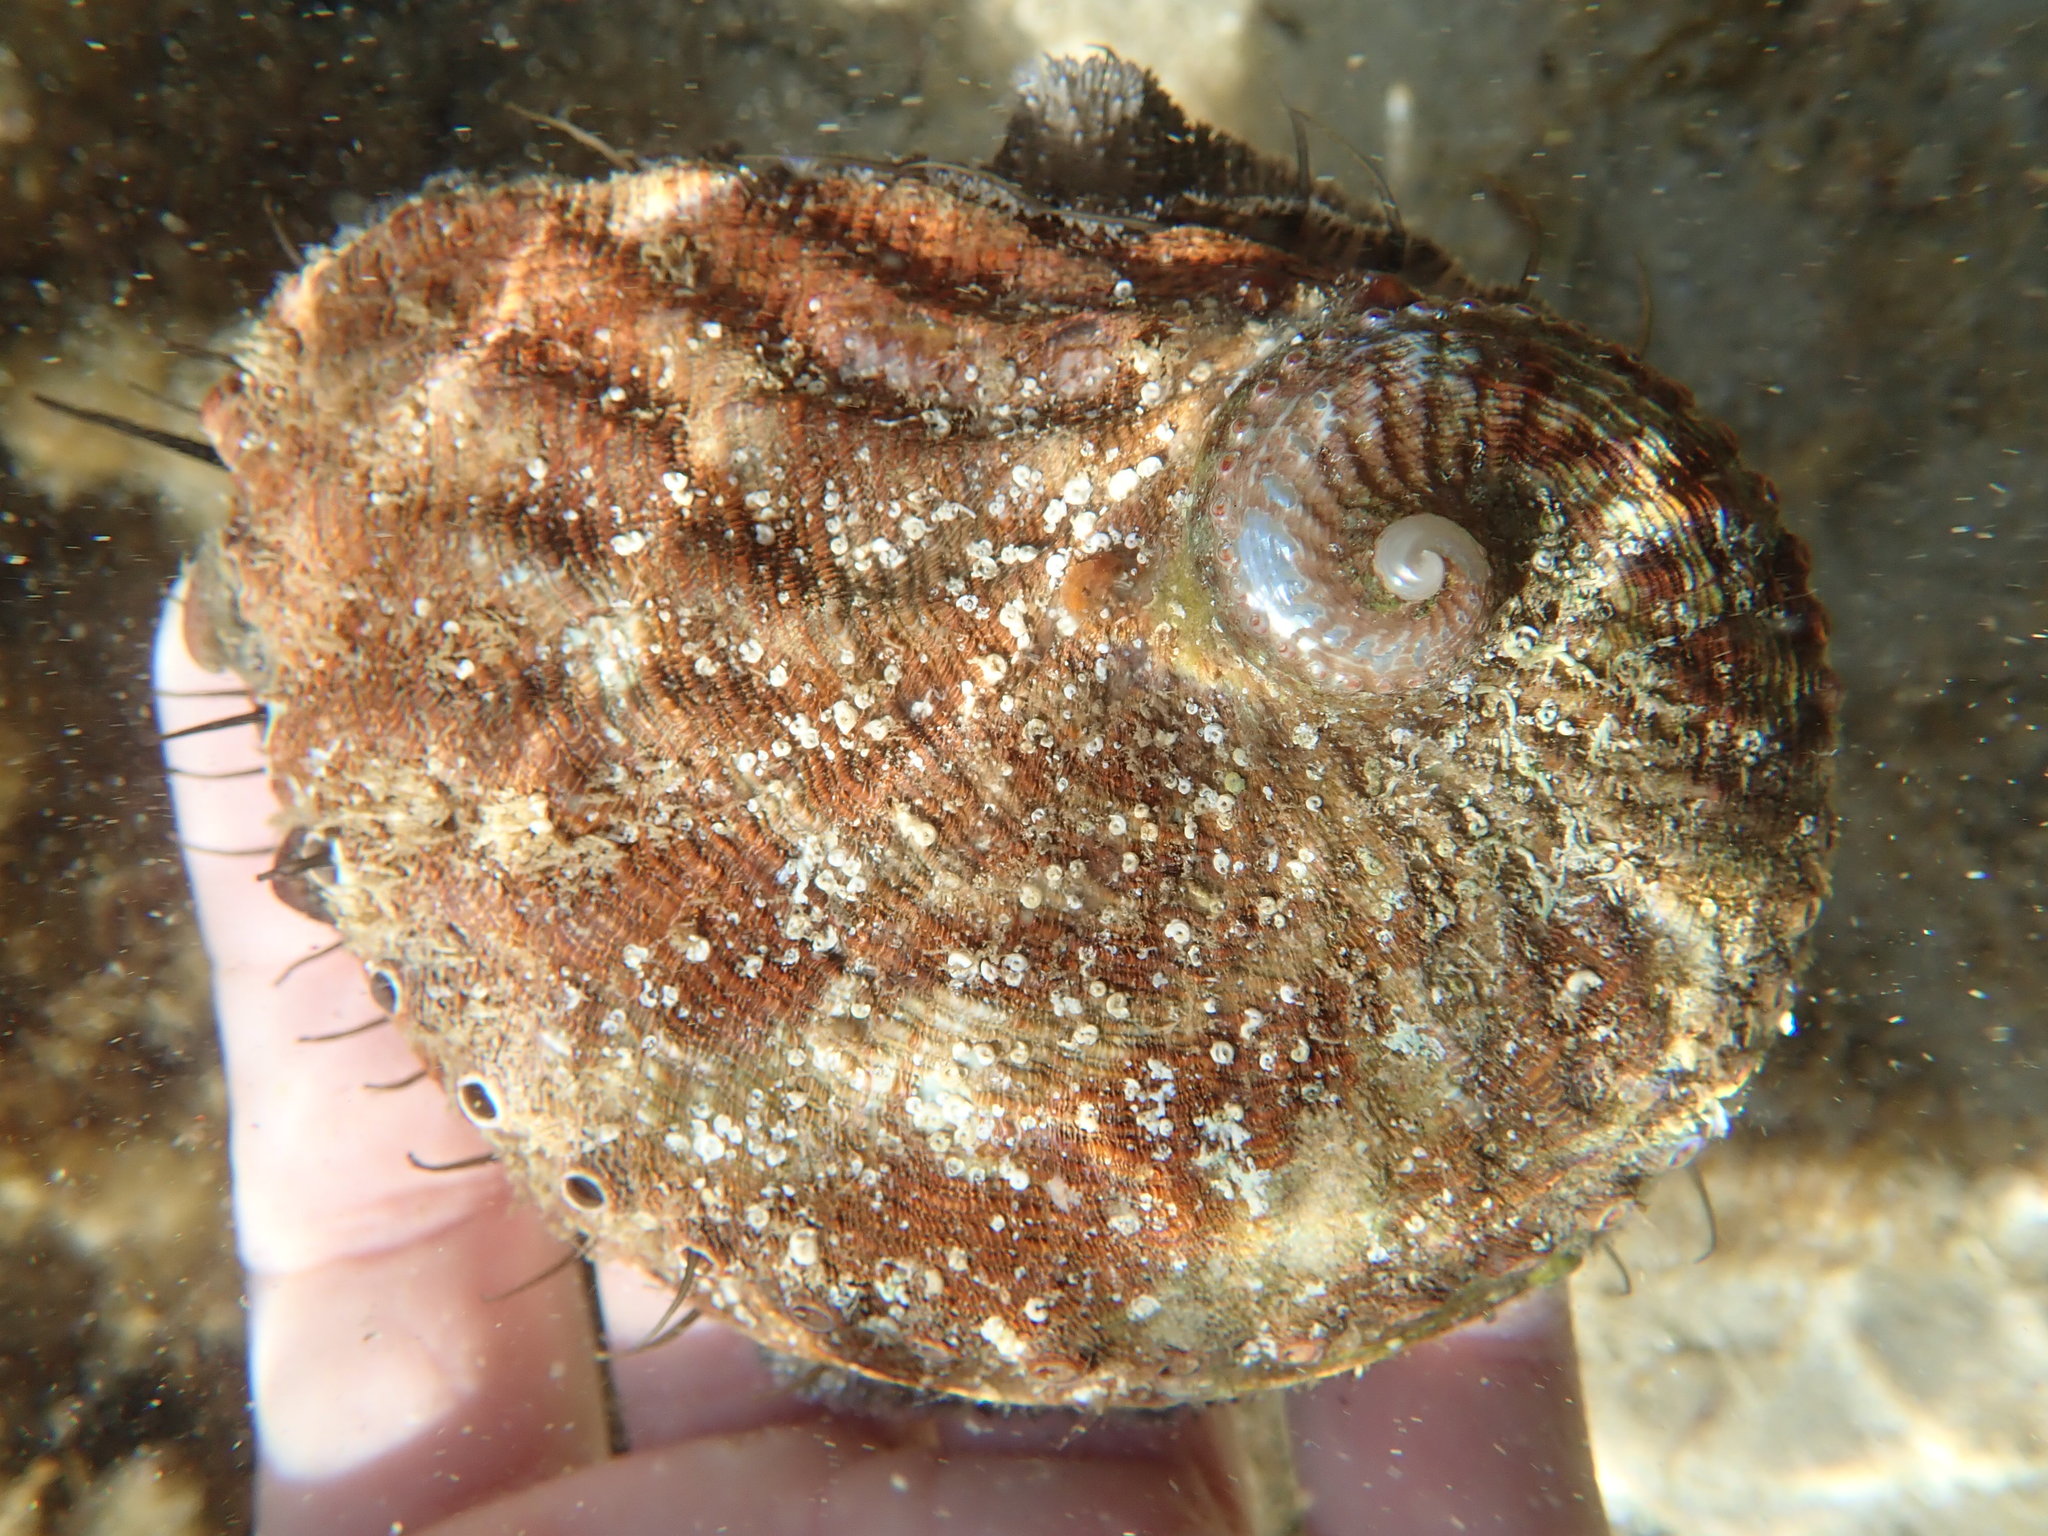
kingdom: Animalia
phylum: Mollusca
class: Gastropoda
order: Lepetellida
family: Haliotidae
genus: Haliotis
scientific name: Haliotis rubra
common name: Blacklip abalone
